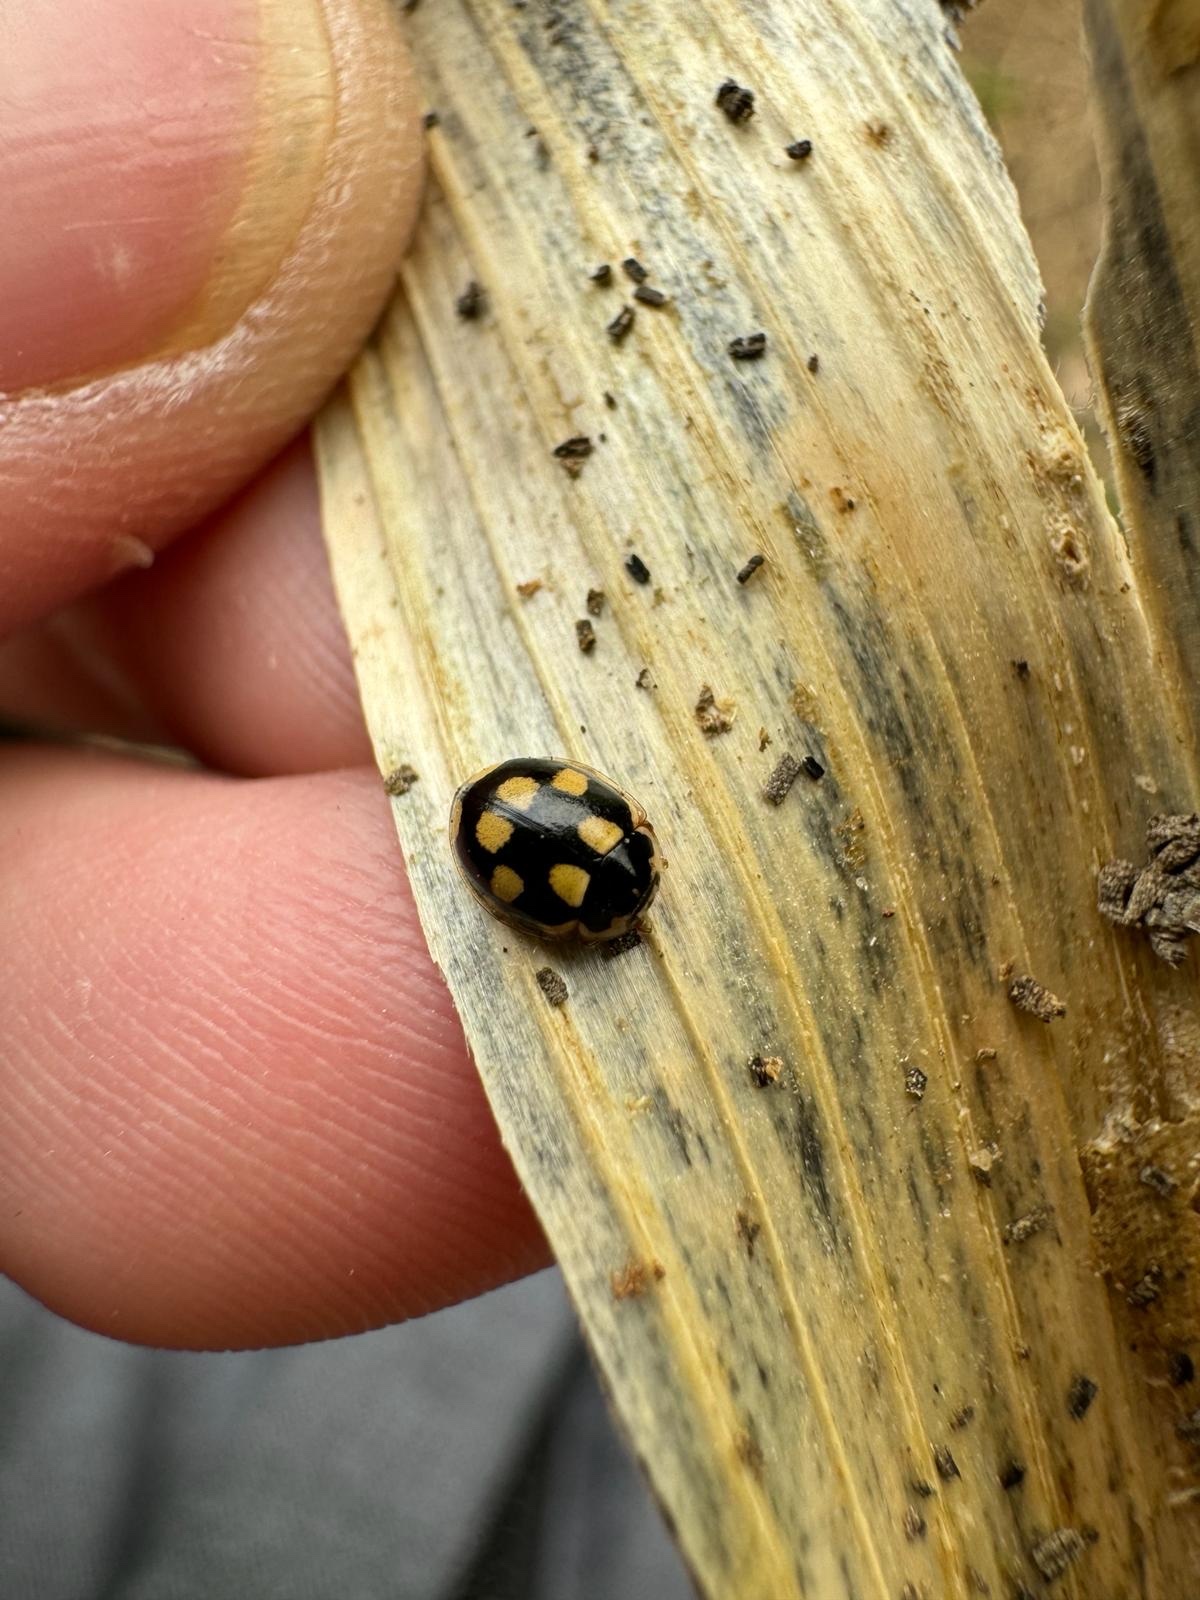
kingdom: Animalia
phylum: Arthropoda
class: Insecta
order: Coleoptera
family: Coccinellidae
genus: Propylaea
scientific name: Propylaea quatuordecimpunctata
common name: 14-spotted ladybird beetle
